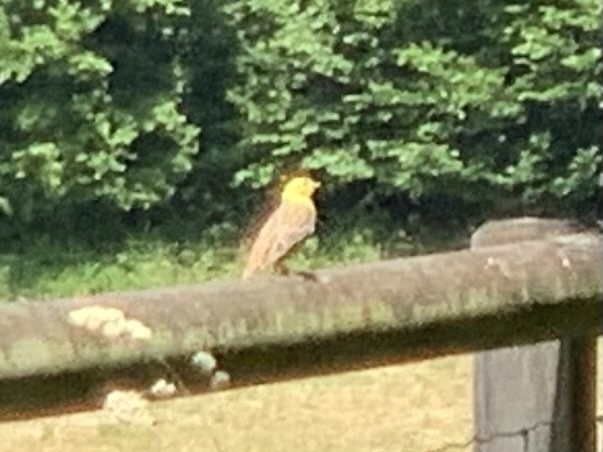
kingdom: Animalia
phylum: Chordata
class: Aves
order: Passeriformes
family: Emberizidae
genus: Emberiza
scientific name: Emberiza citrinella
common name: Yellowhammer
